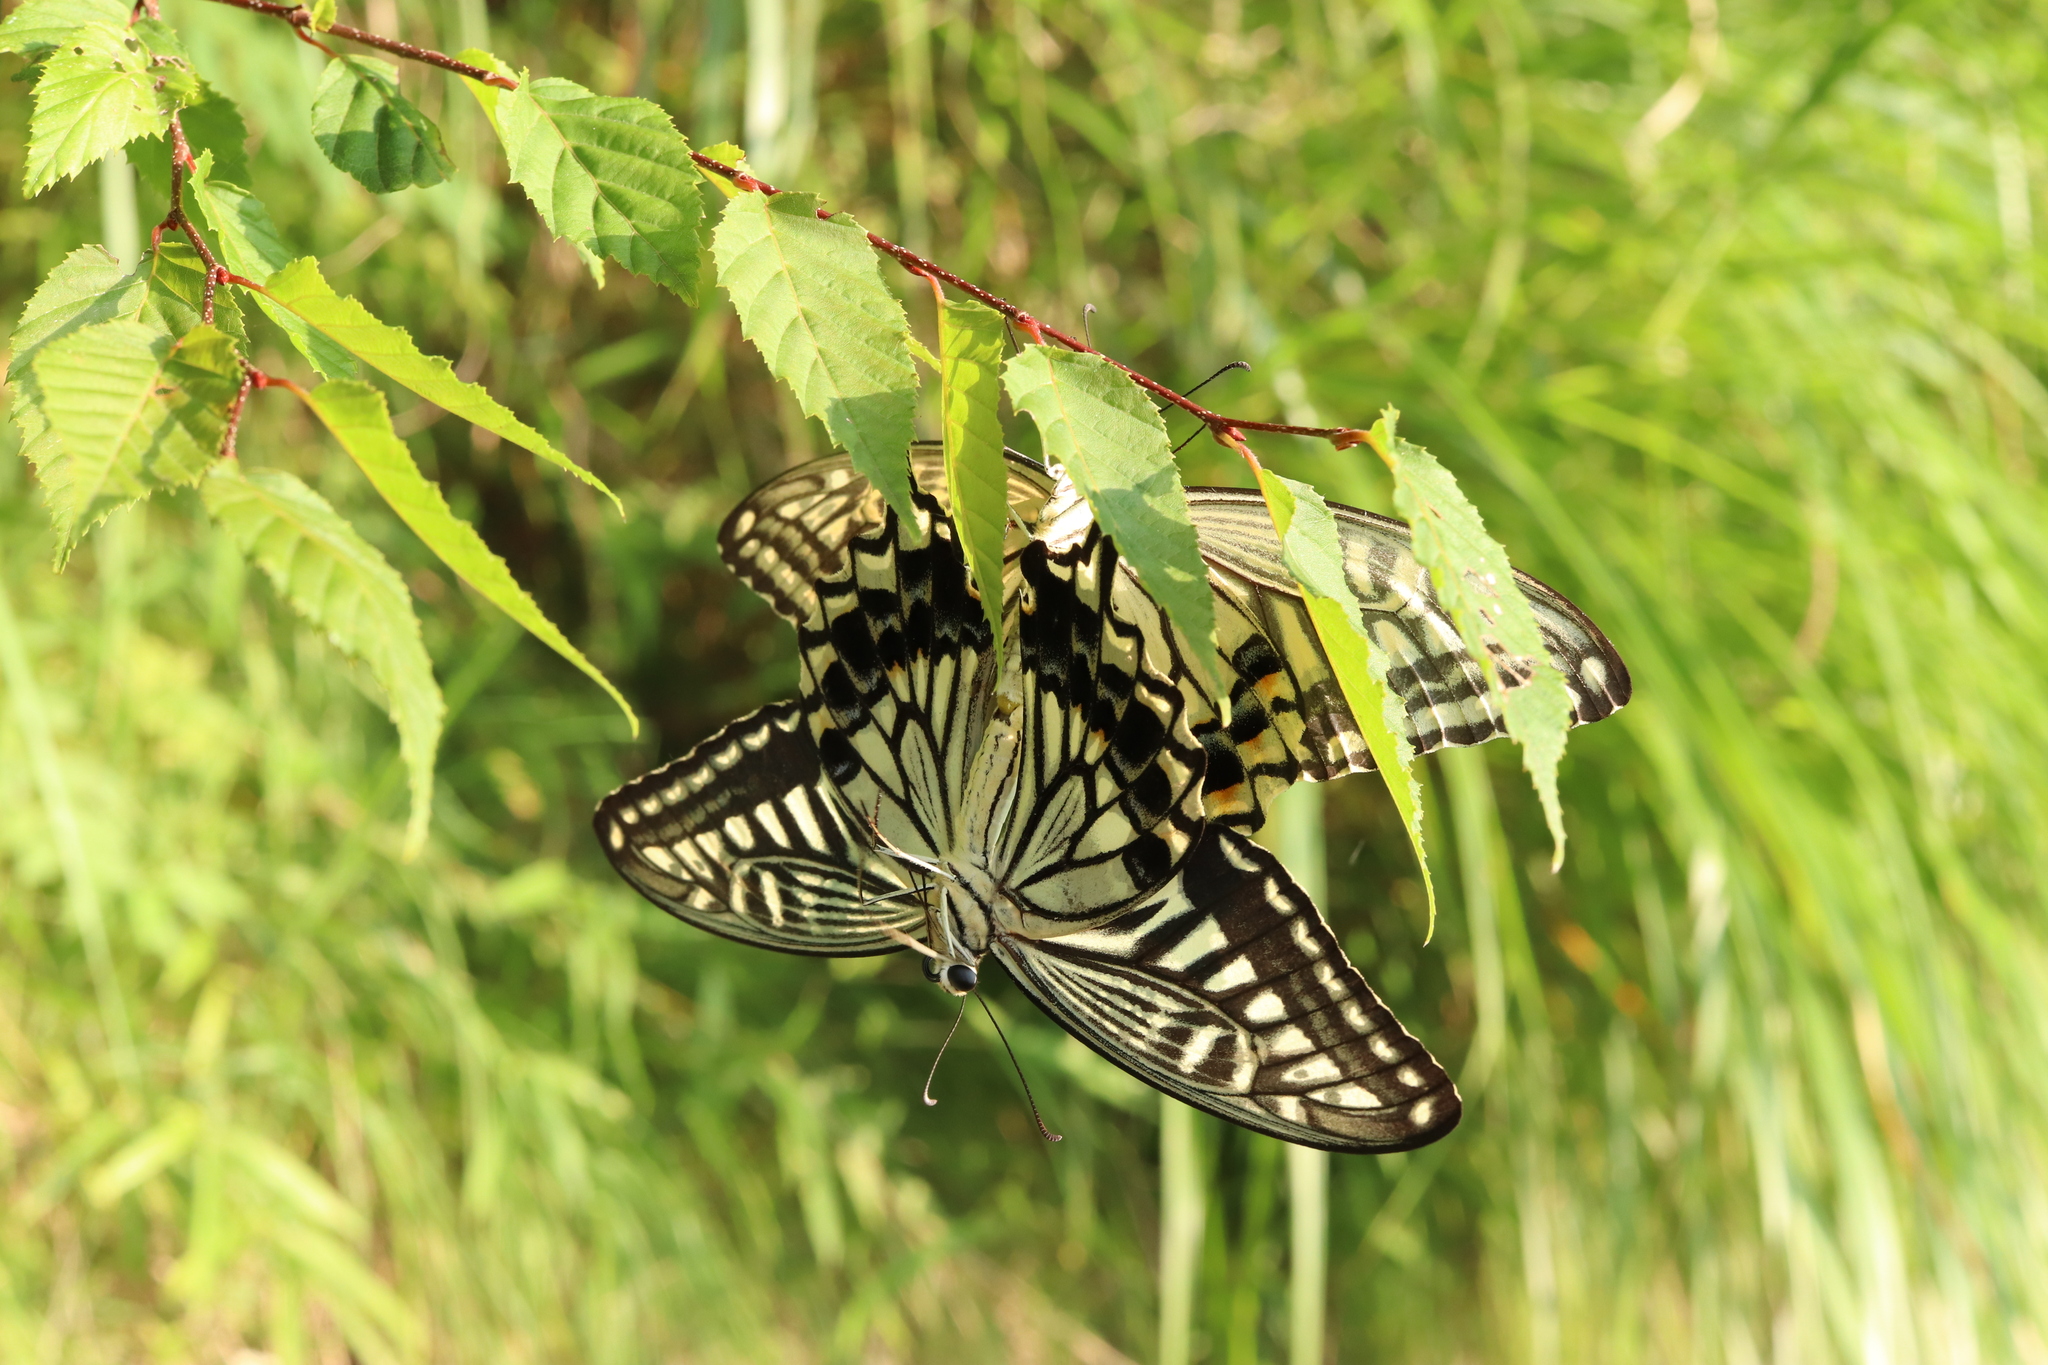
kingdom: Animalia
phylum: Arthropoda
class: Insecta
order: Lepidoptera
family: Papilionidae
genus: Papilio
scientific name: Papilio xuthus
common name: Asian swallowtail
